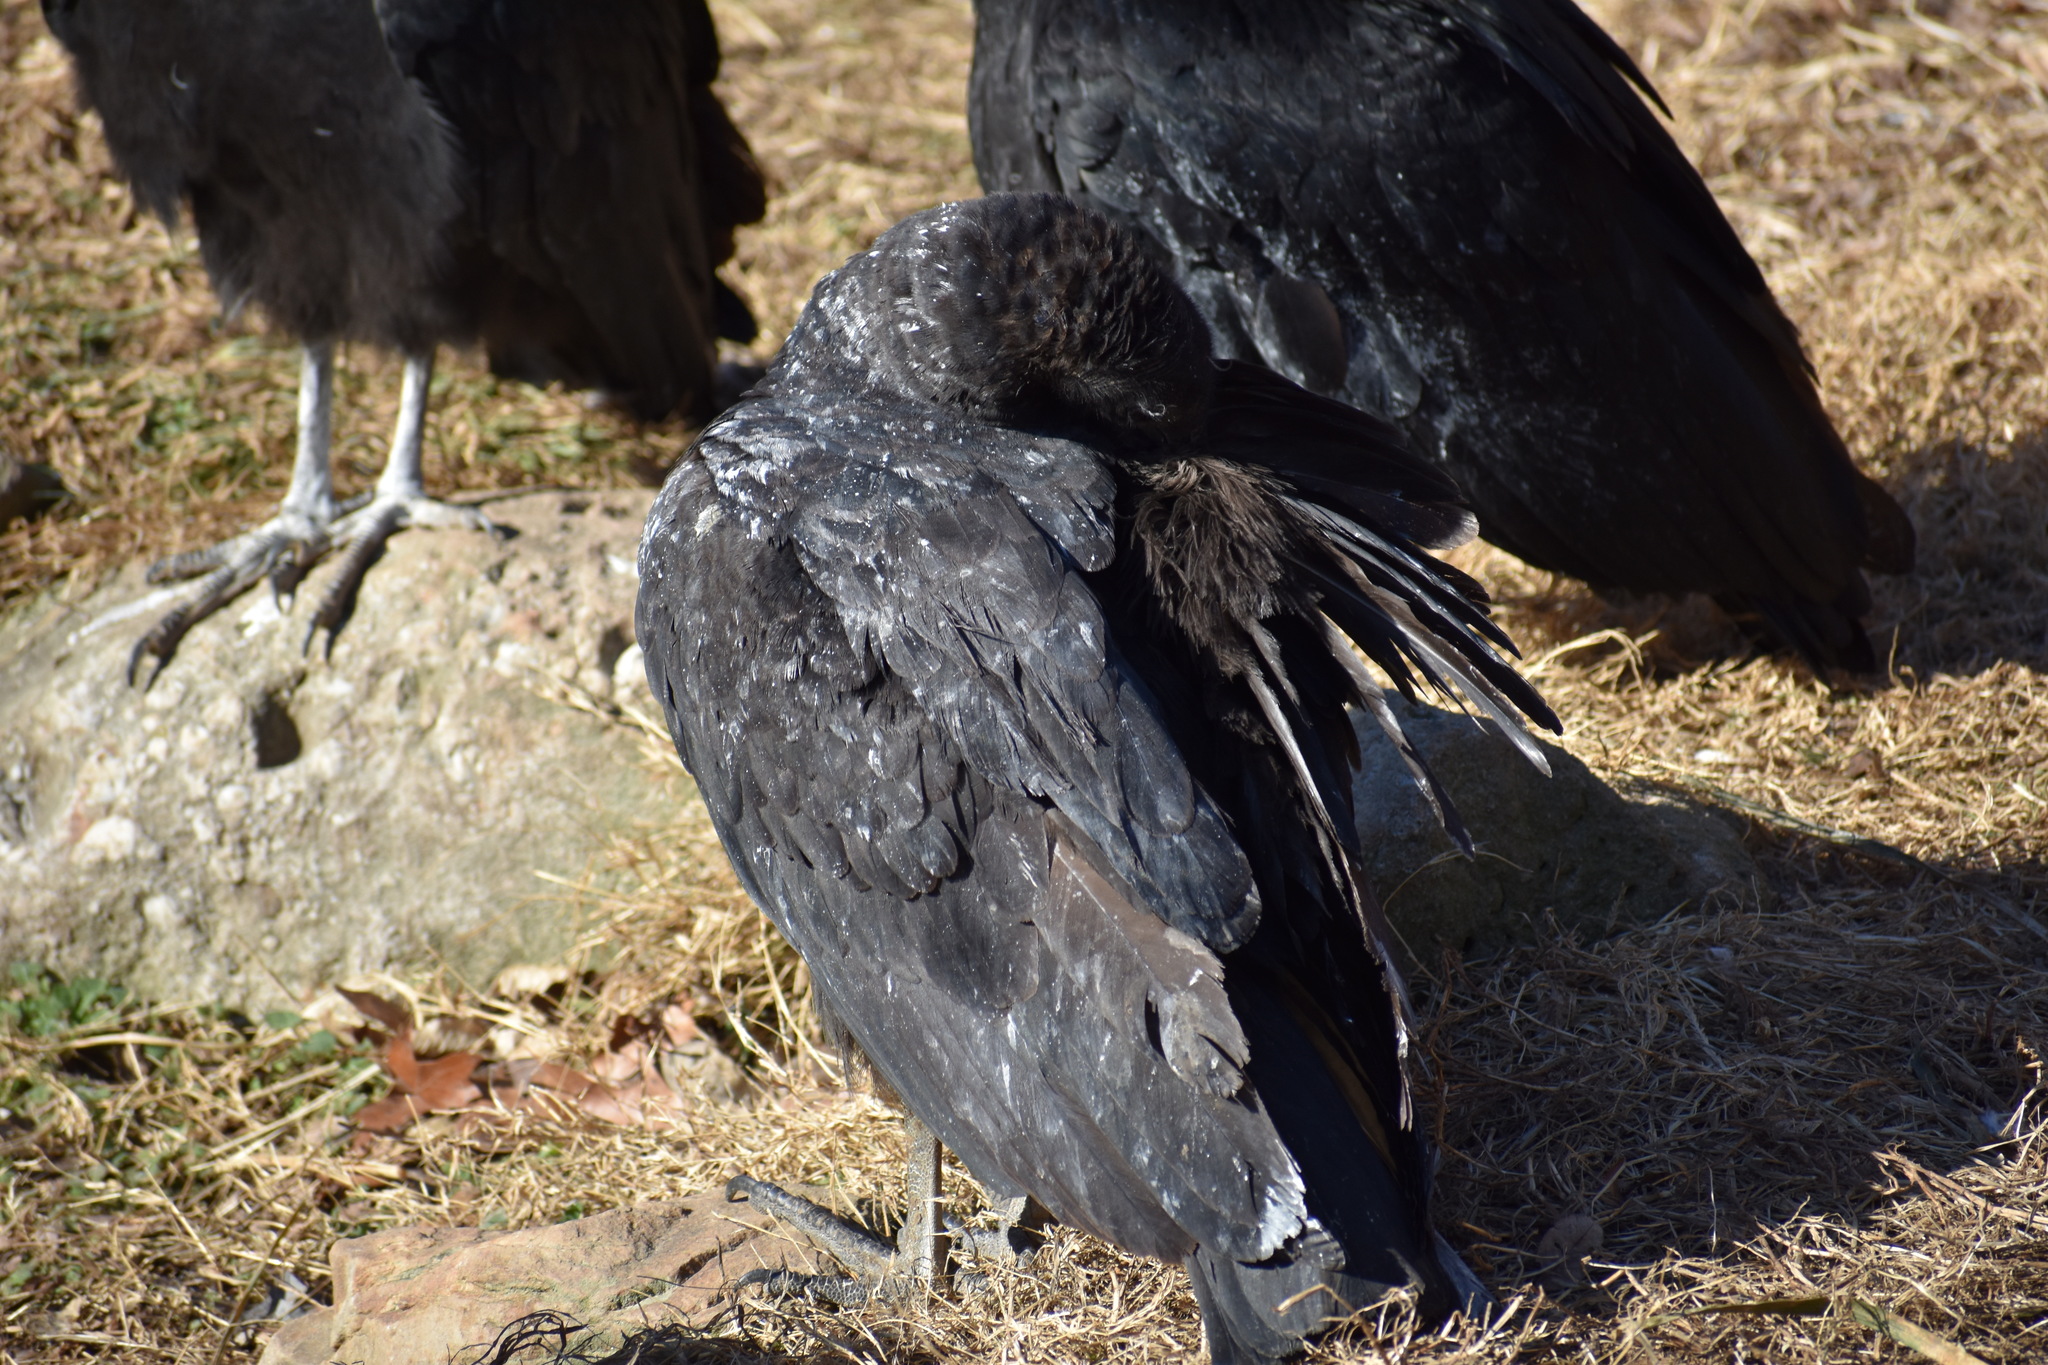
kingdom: Animalia
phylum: Chordata
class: Aves
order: Accipitriformes
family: Cathartidae
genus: Coragyps
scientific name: Coragyps atratus
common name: Black vulture
